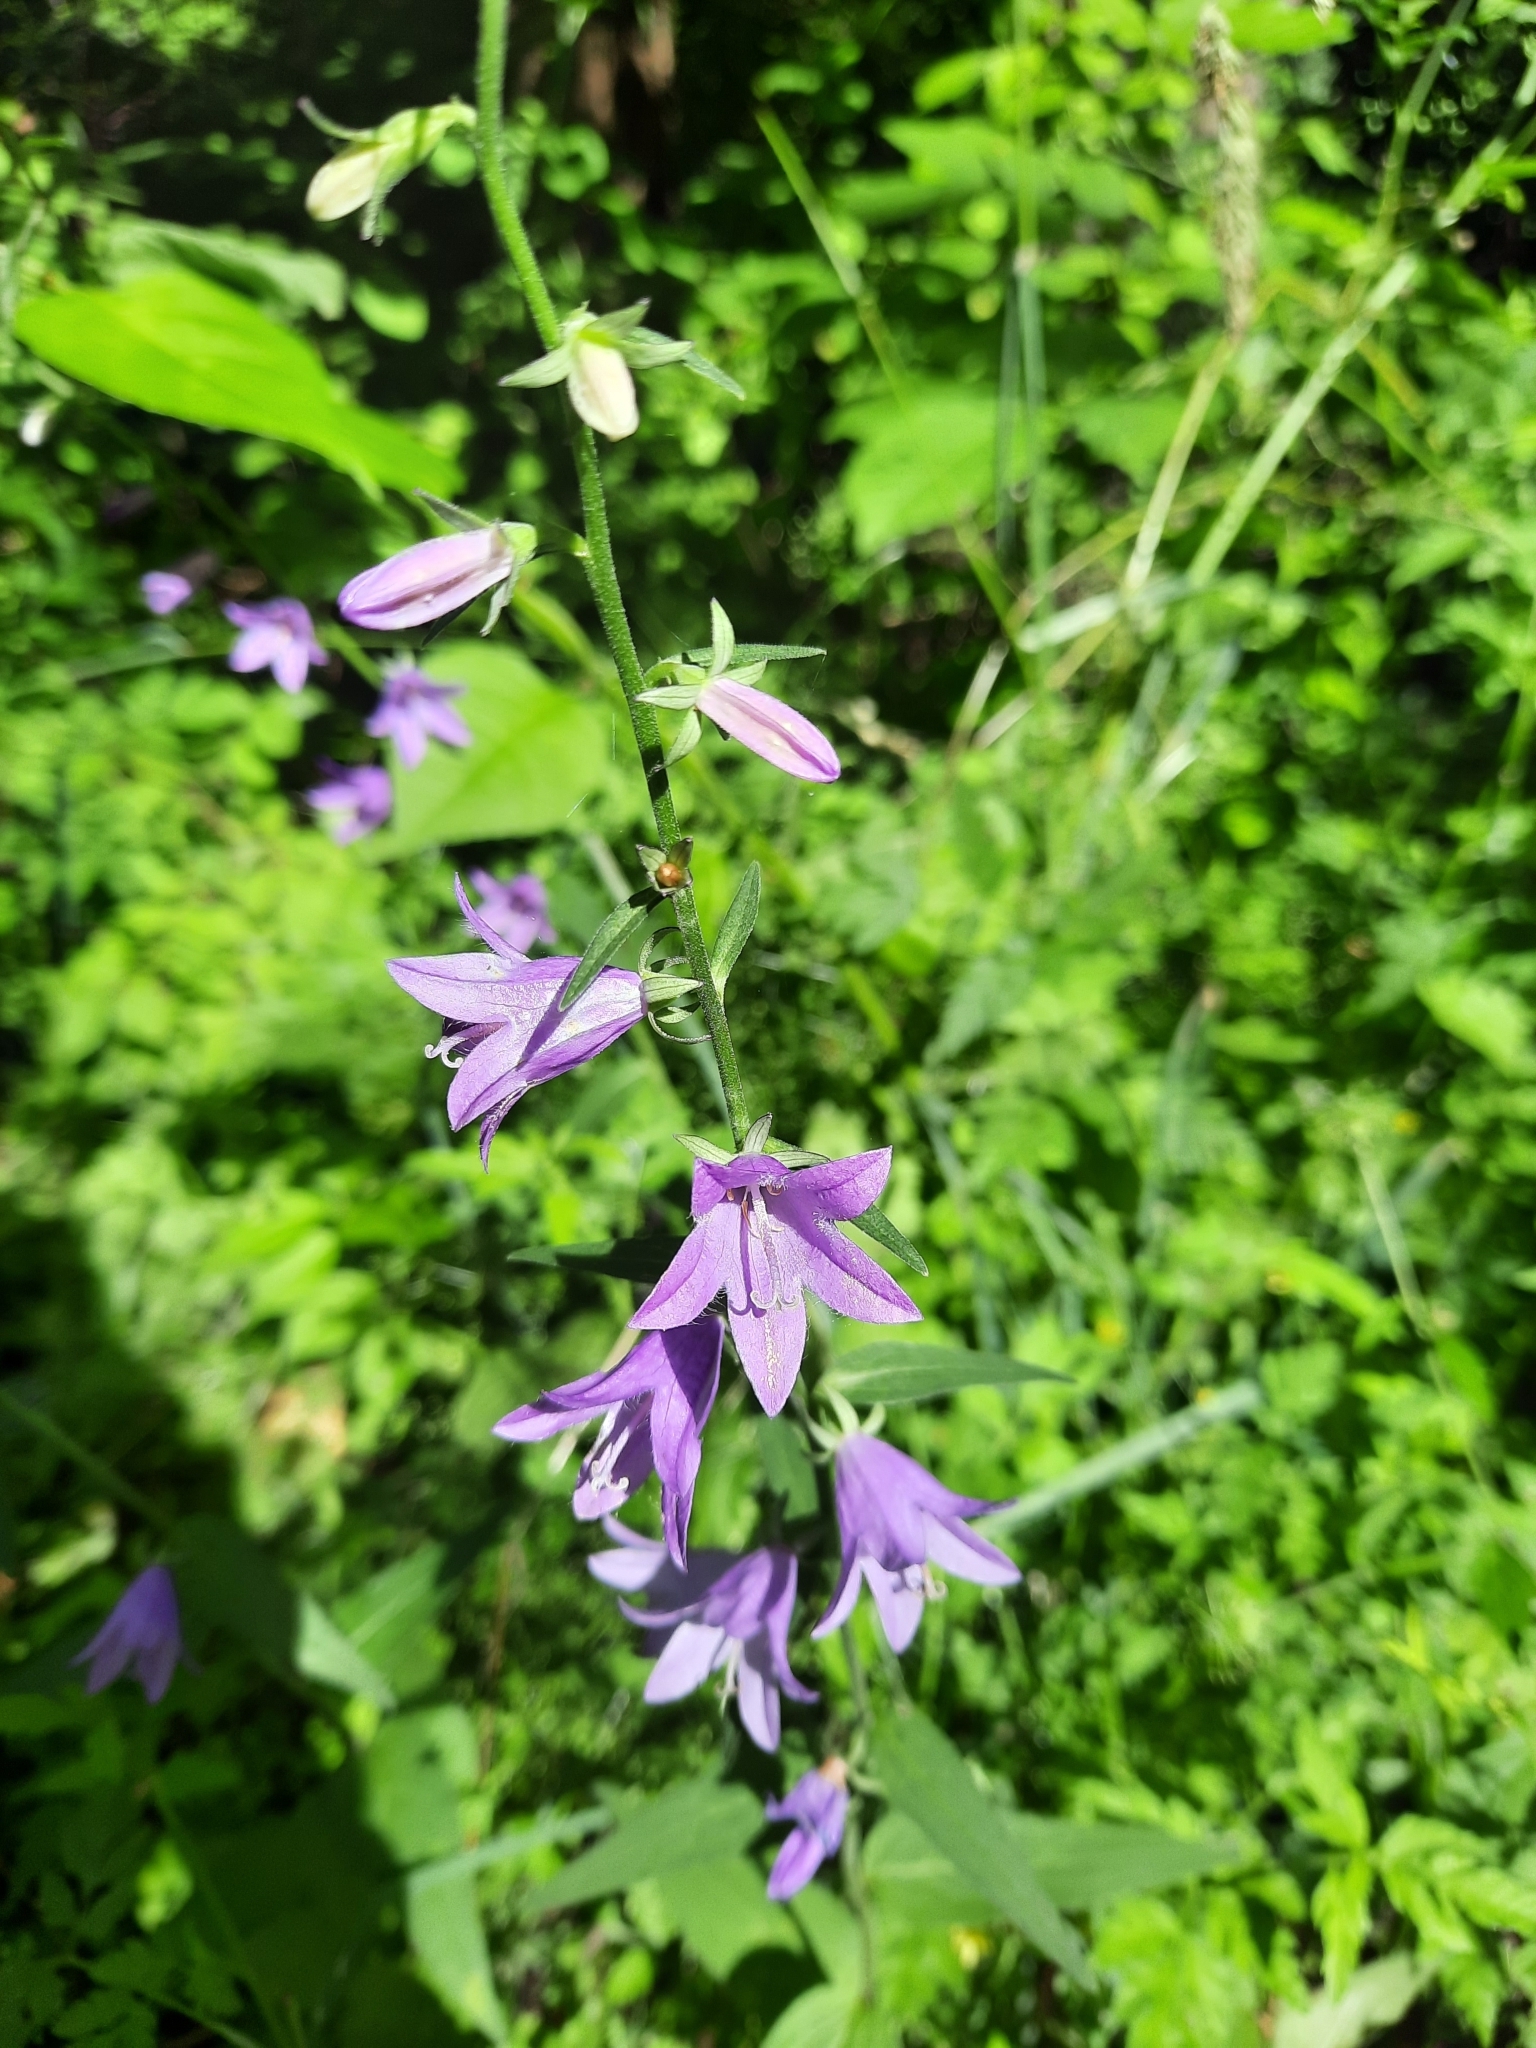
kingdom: Plantae
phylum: Tracheophyta
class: Magnoliopsida
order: Asterales
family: Campanulaceae
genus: Campanula
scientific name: Campanula rapunculoides
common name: Creeping bellflower
